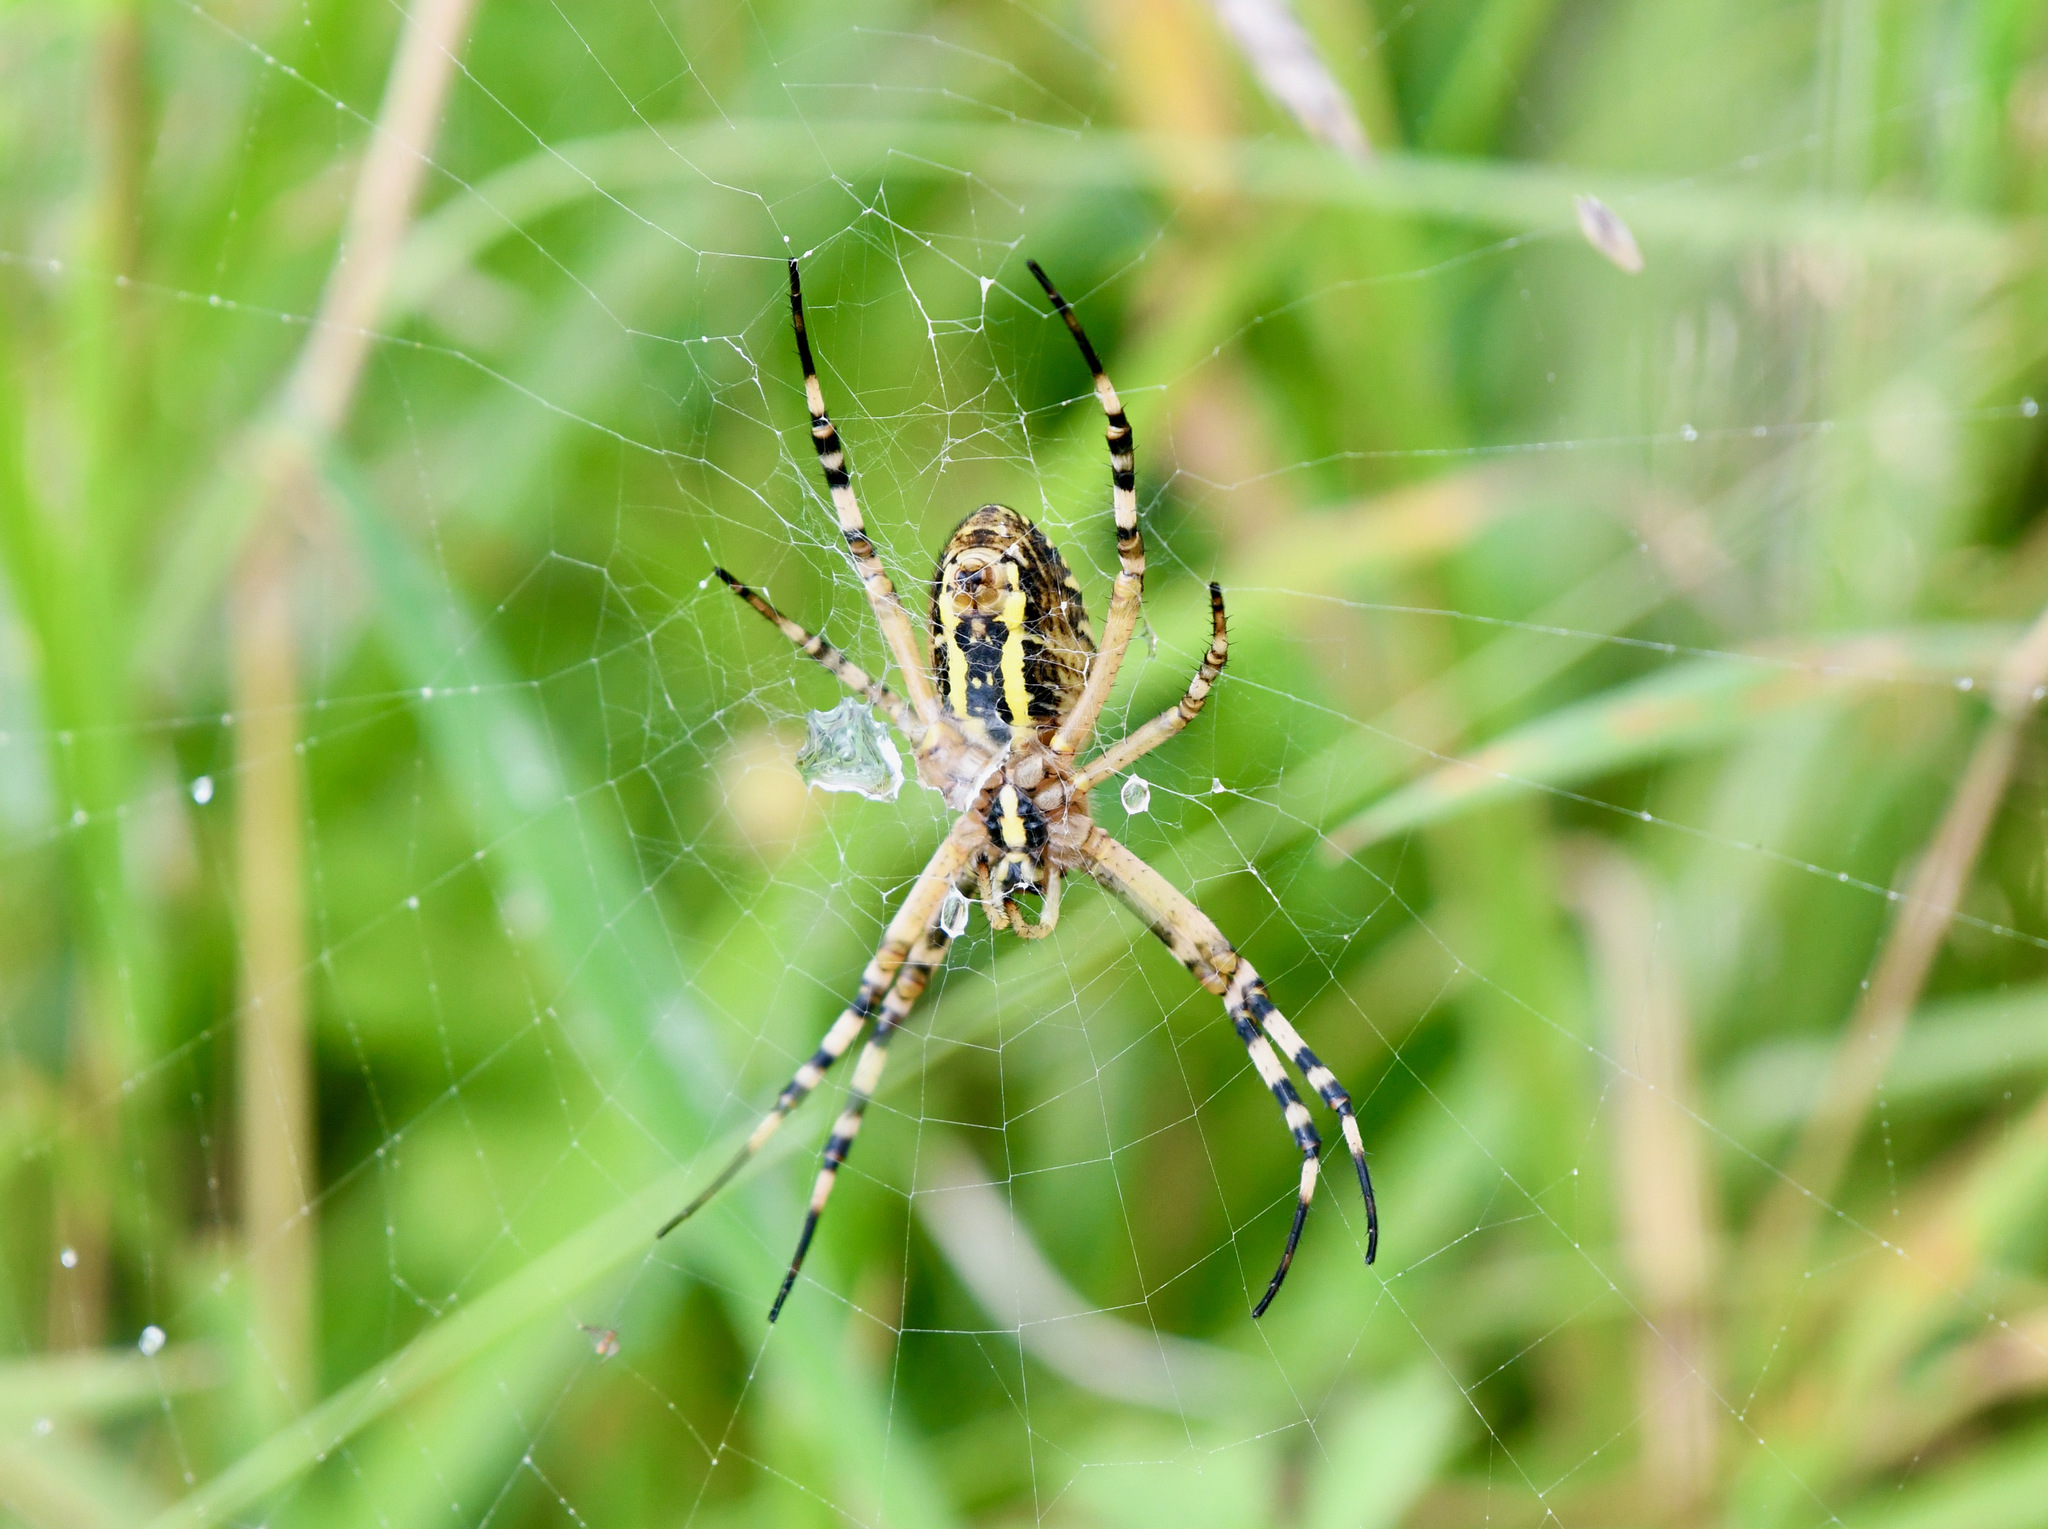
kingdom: Animalia
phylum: Arthropoda
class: Arachnida
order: Araneae
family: Araneidae
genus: Argiope
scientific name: Argiope bruennichi
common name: Wasp spider
